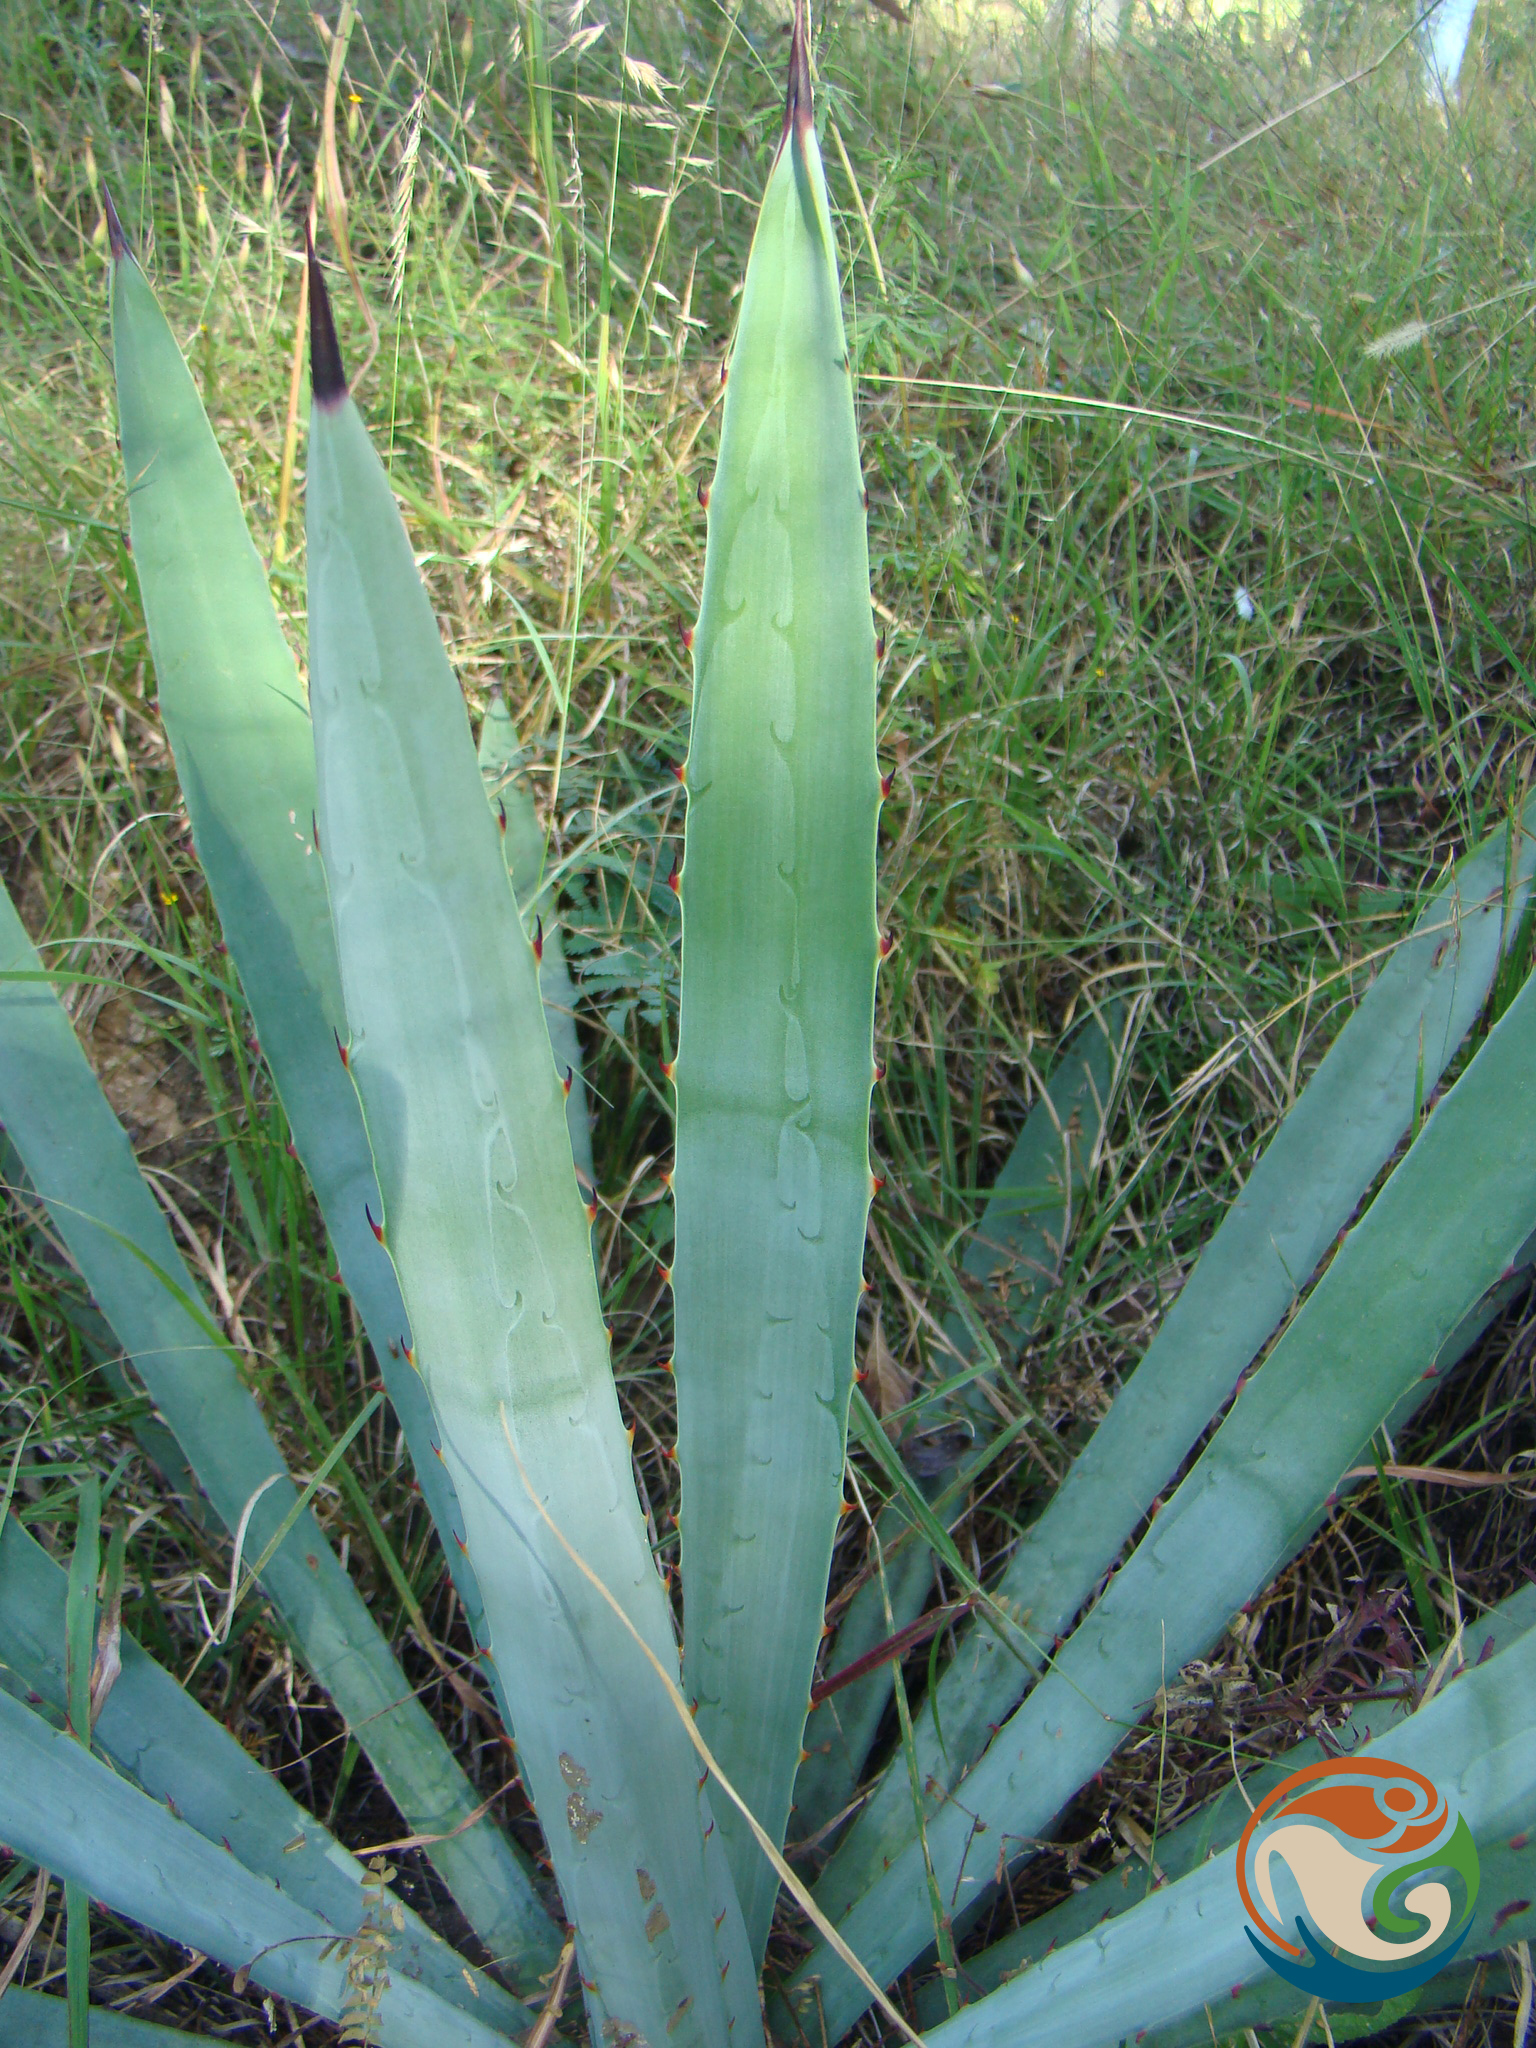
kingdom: Plantae
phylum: Tracheophyta
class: Liliopsida
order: Asparagales
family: Asparagaceae
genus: Agave
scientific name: Agave angustifolia
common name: Mescal agave
